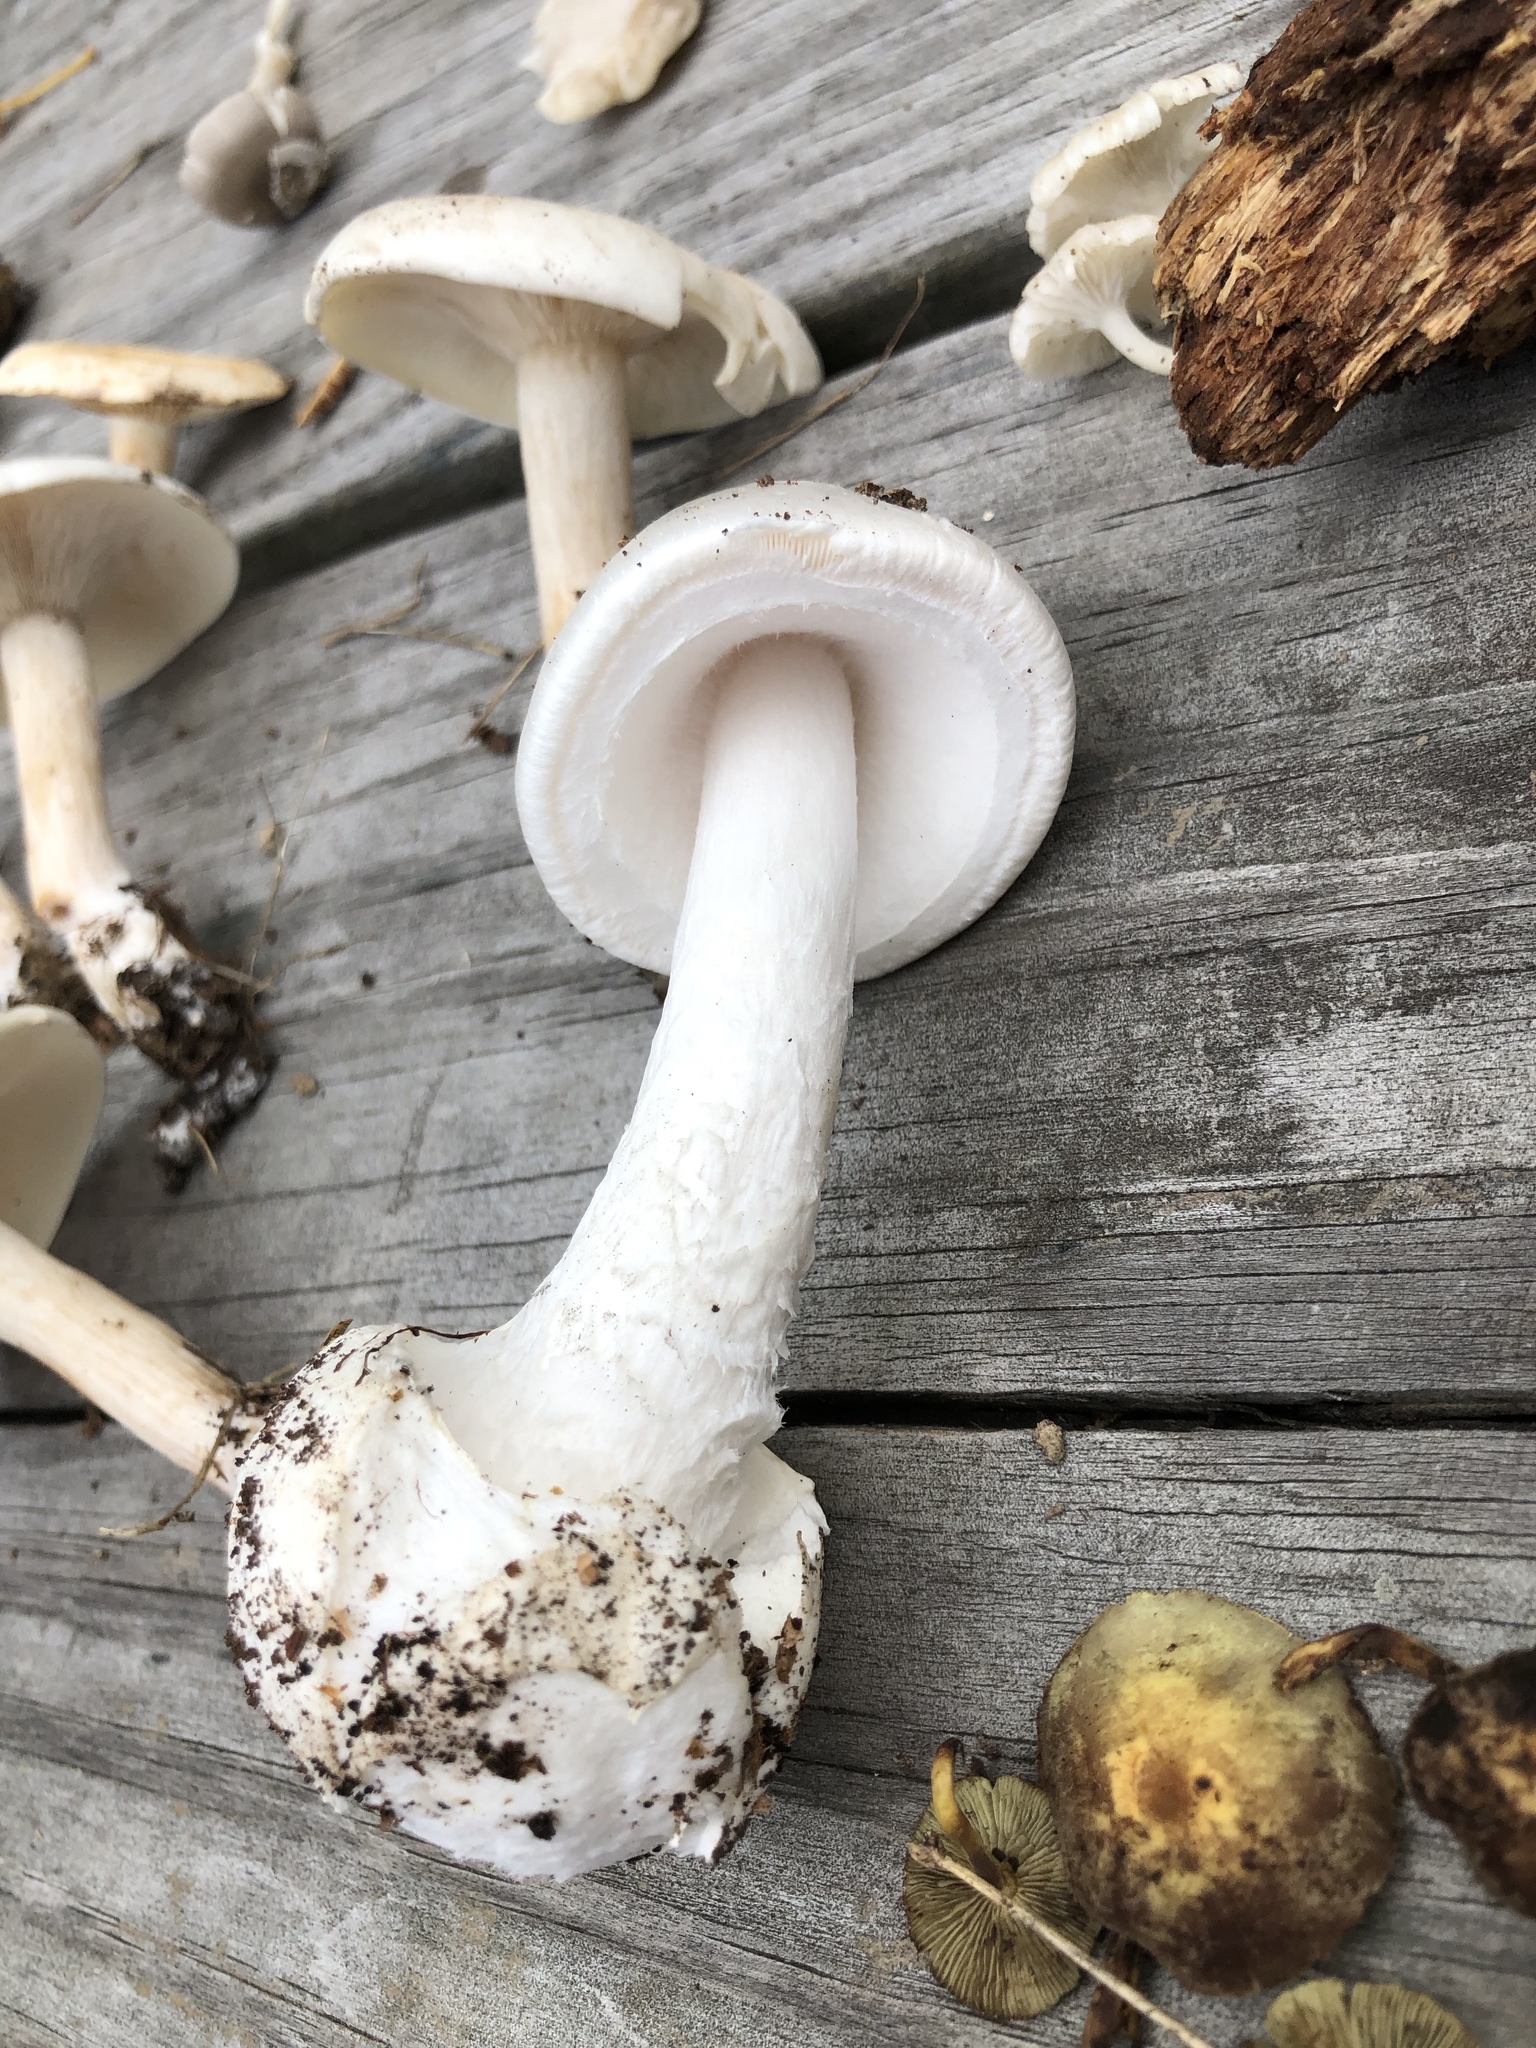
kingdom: Fungi
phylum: Basidiomycota
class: Agaricomycetes
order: Agaricales
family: Amanitaceae
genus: Amanita
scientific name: Amanita bisporigera
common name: Eastern north american destroying angel
